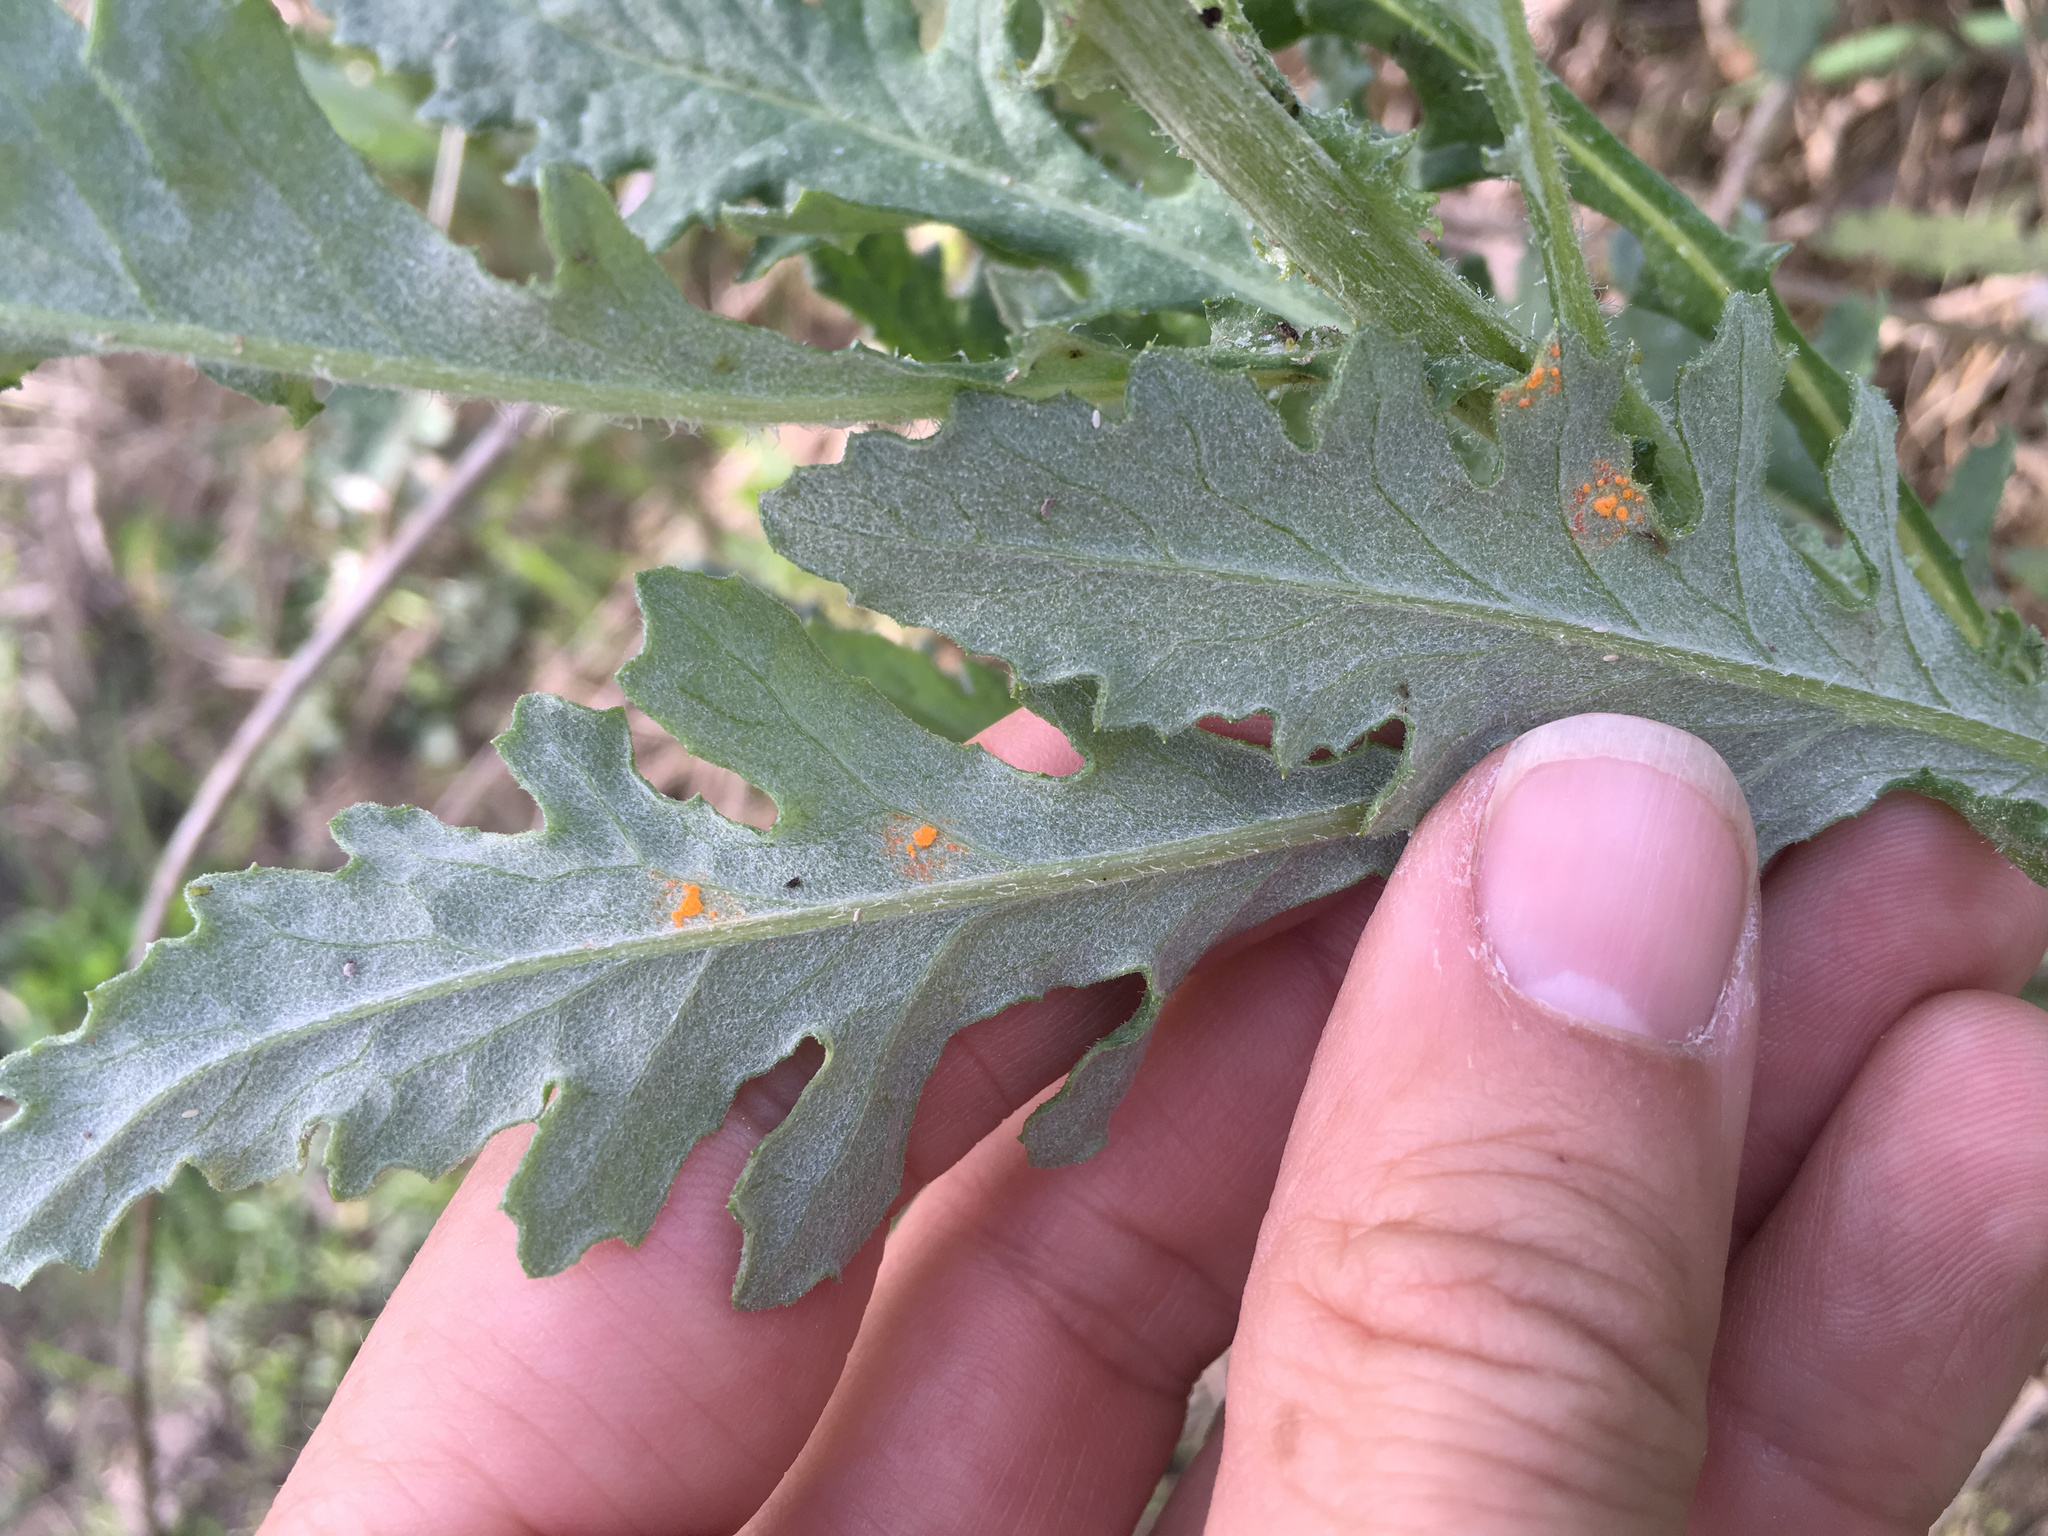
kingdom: Fungi
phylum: Basidiomycota
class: Pucciniomycetes
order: Pucciniales
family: Coleosporiaceae
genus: Coleosporium
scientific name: Coleosporium tussilaginis
